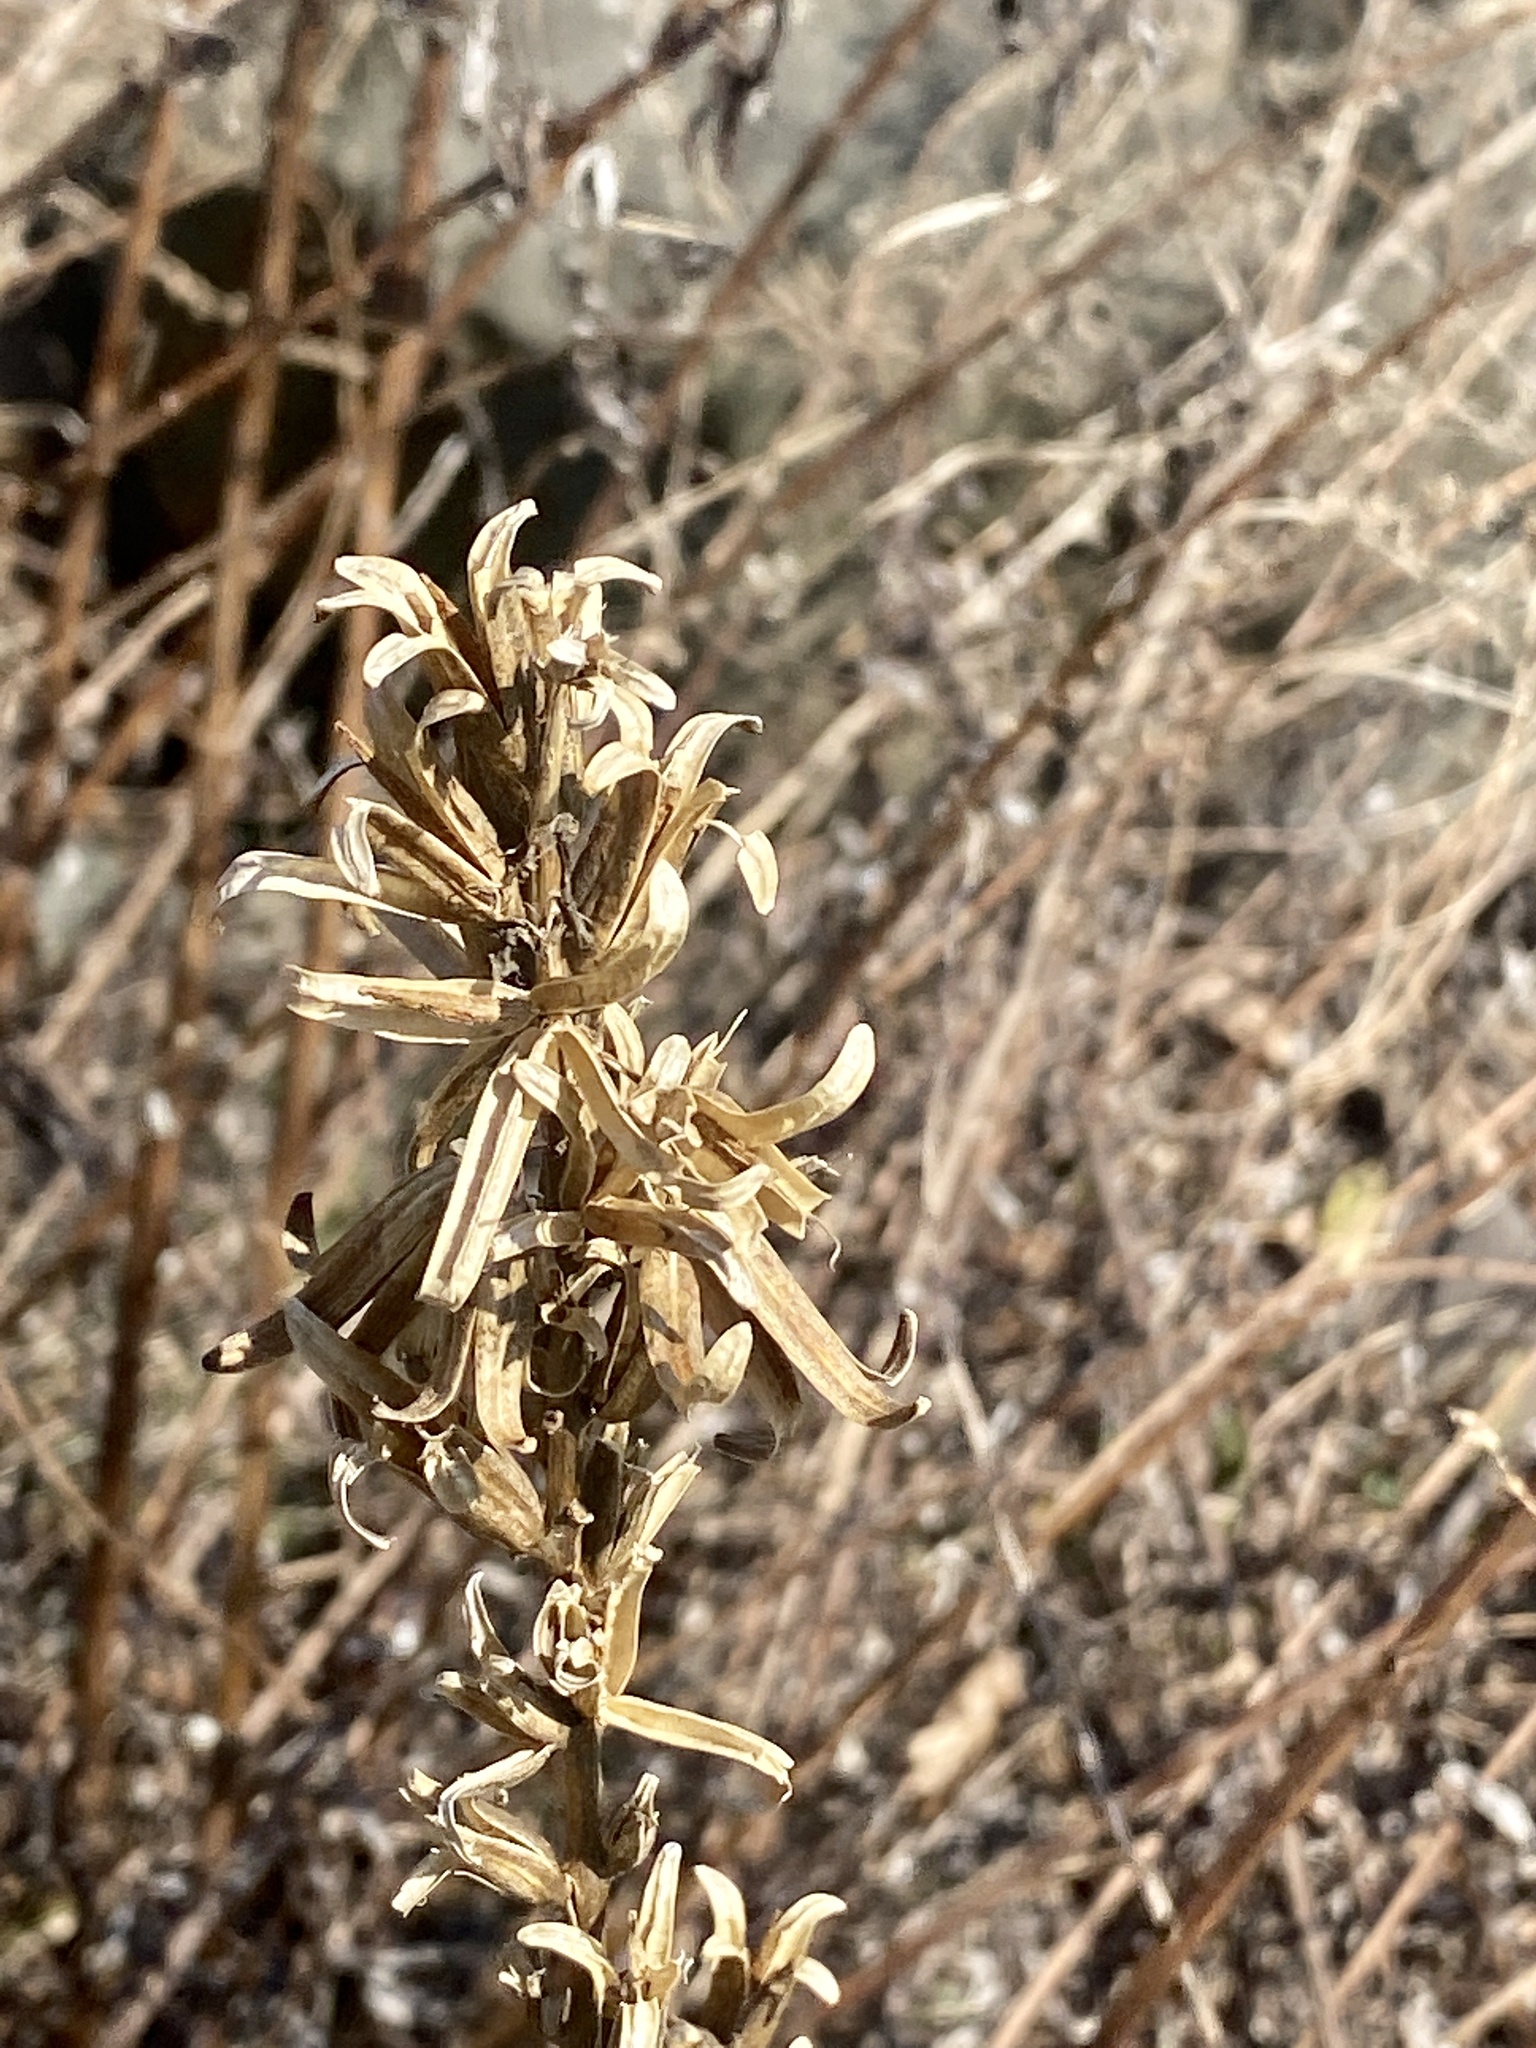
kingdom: Plantae
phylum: Tracheophyta
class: Magnoliopsida
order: Myrtales
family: Onagraceae
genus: Oenothera
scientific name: Oenothera biennis
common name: Common evening-primrose
